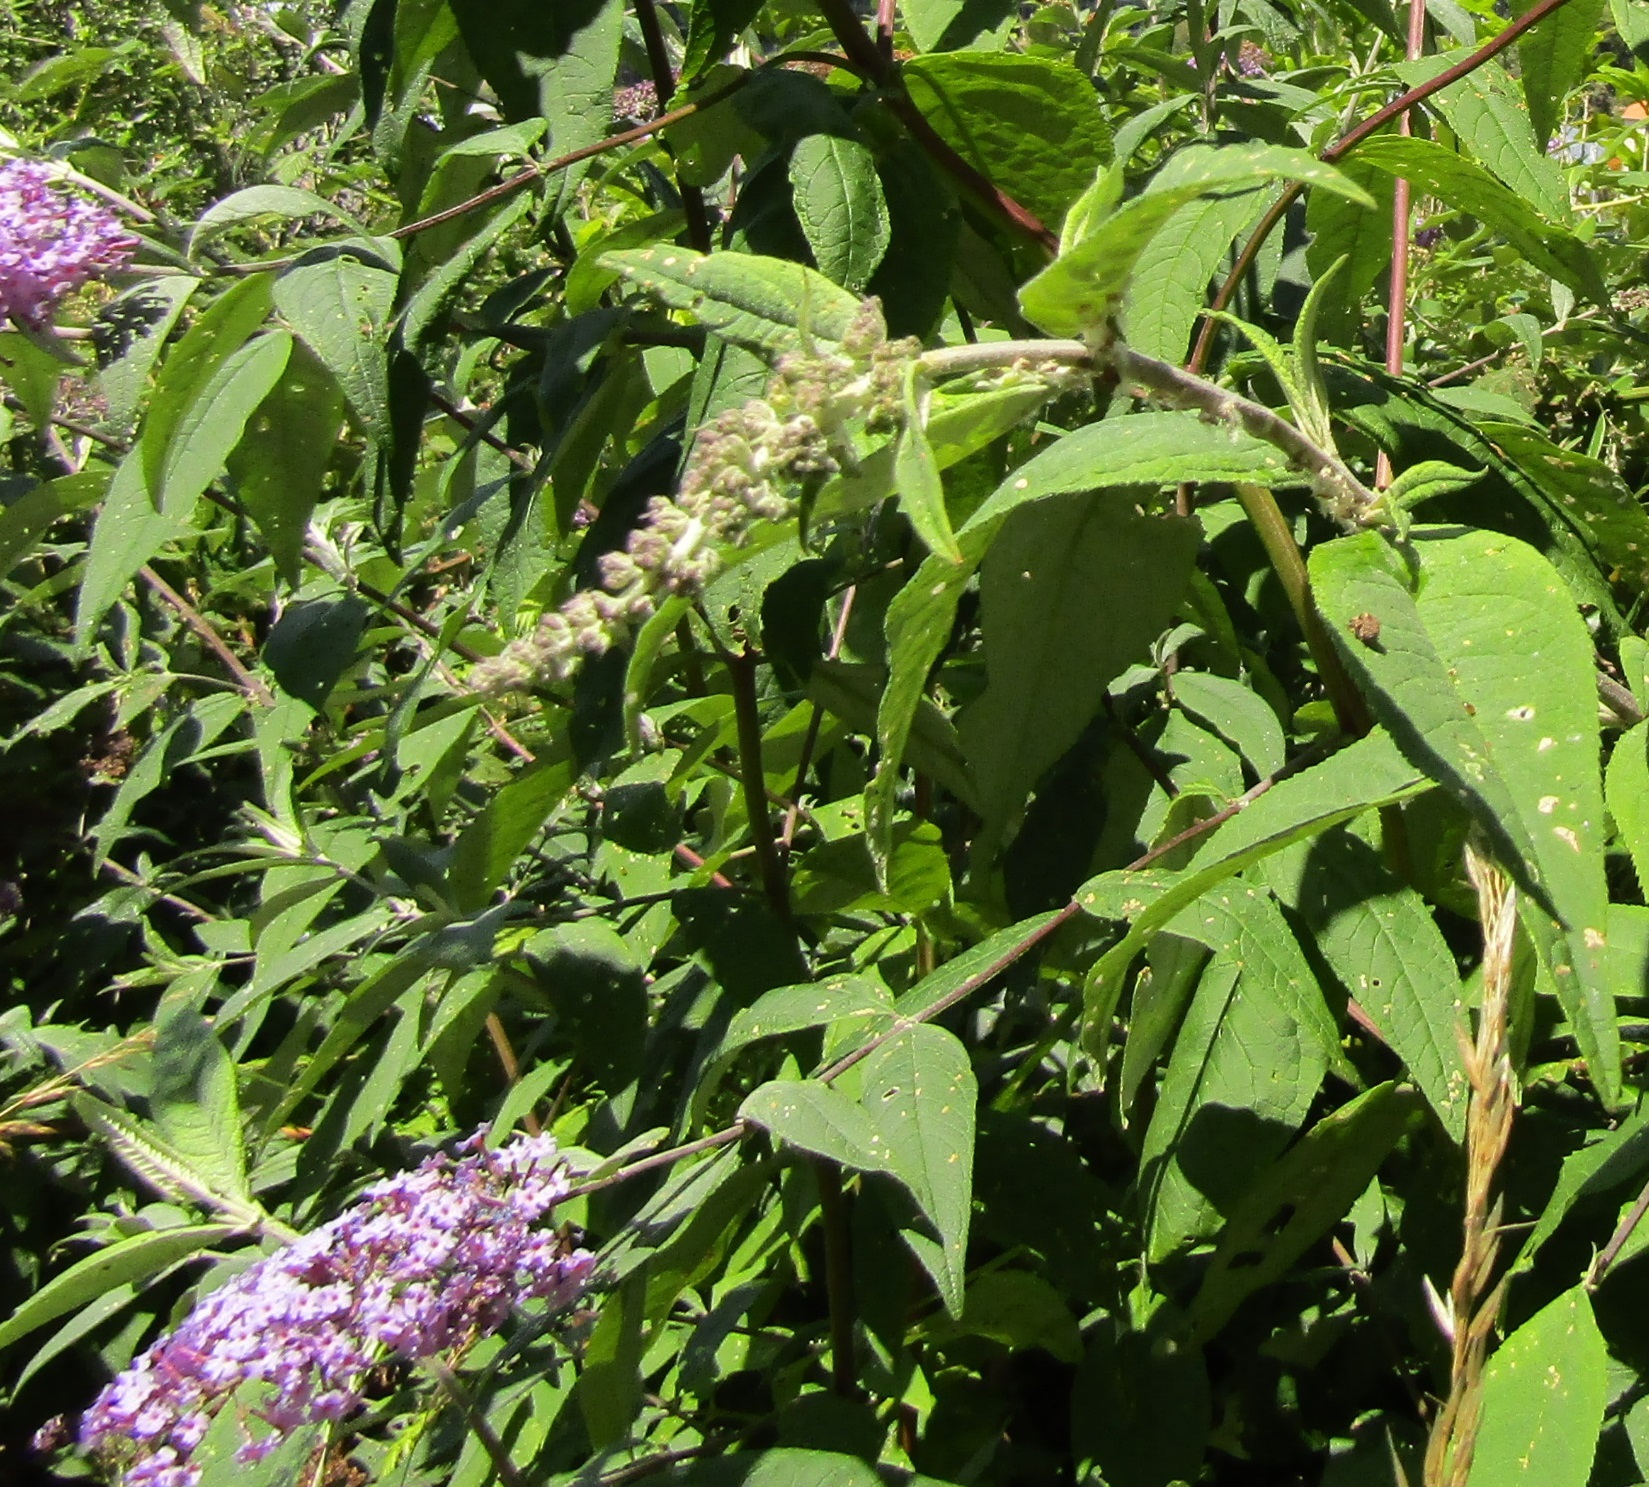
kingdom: Animalia
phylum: Arthropoda
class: Insecta
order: Coleoptera
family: Curculionidae
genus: Cleopus
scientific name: Cleopus japonicus
